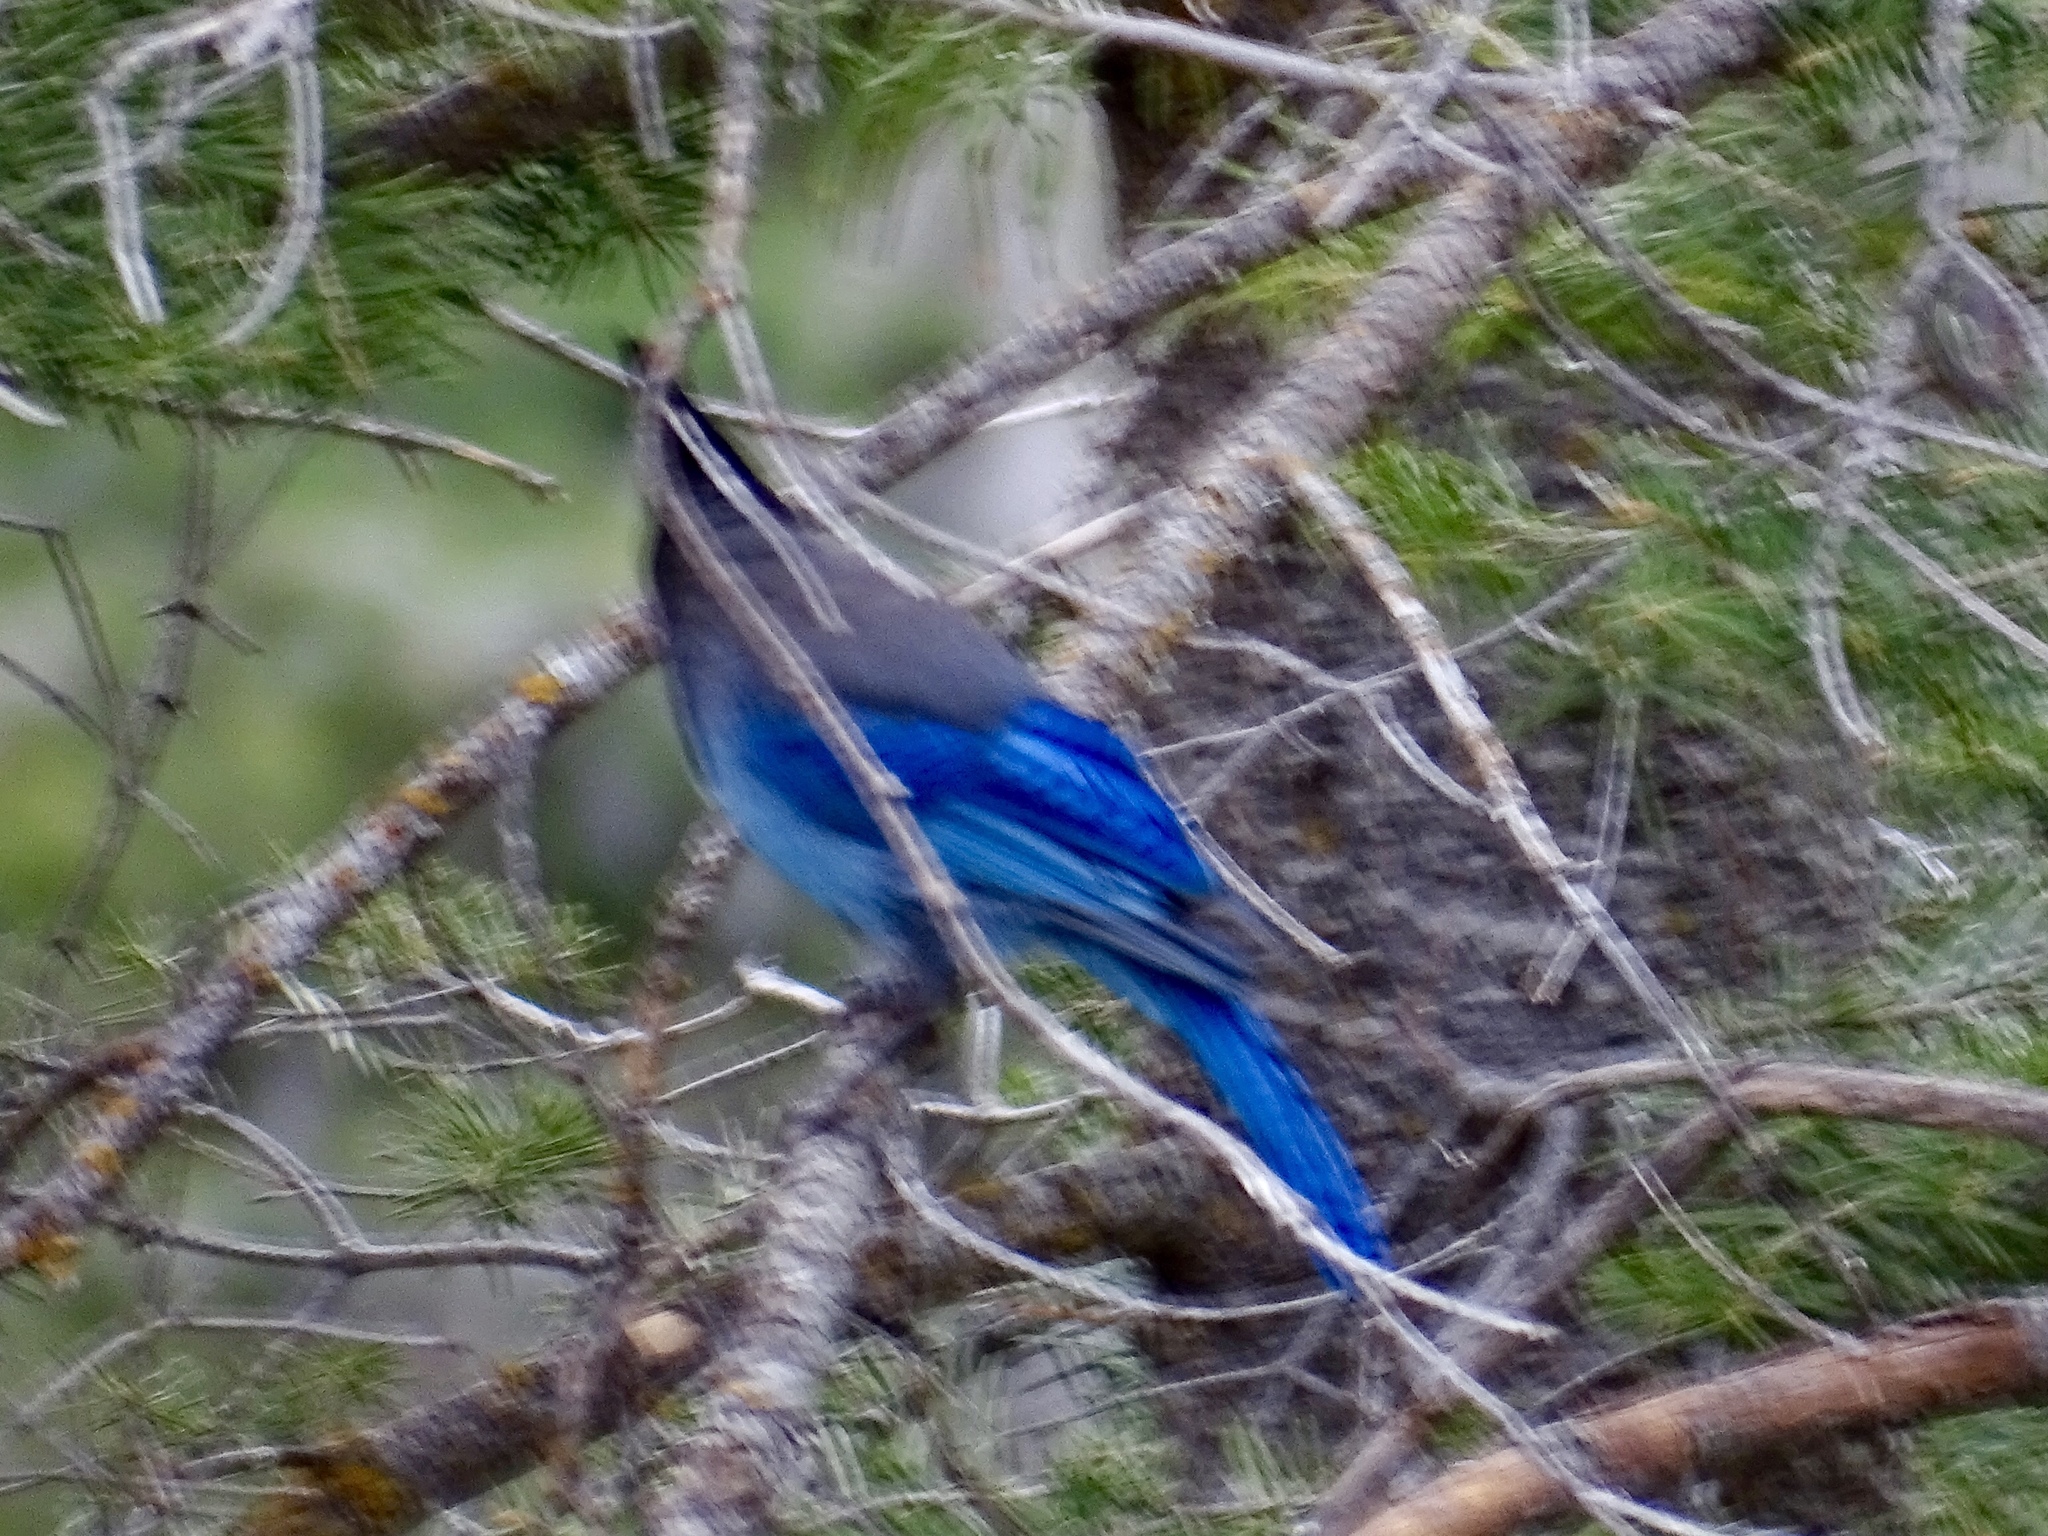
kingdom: Animalia
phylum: Chordata
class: Aves
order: Passeriformes
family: Corvidae
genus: Cyanocitta
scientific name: Cyanocitta stelleri
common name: Steller's jay
